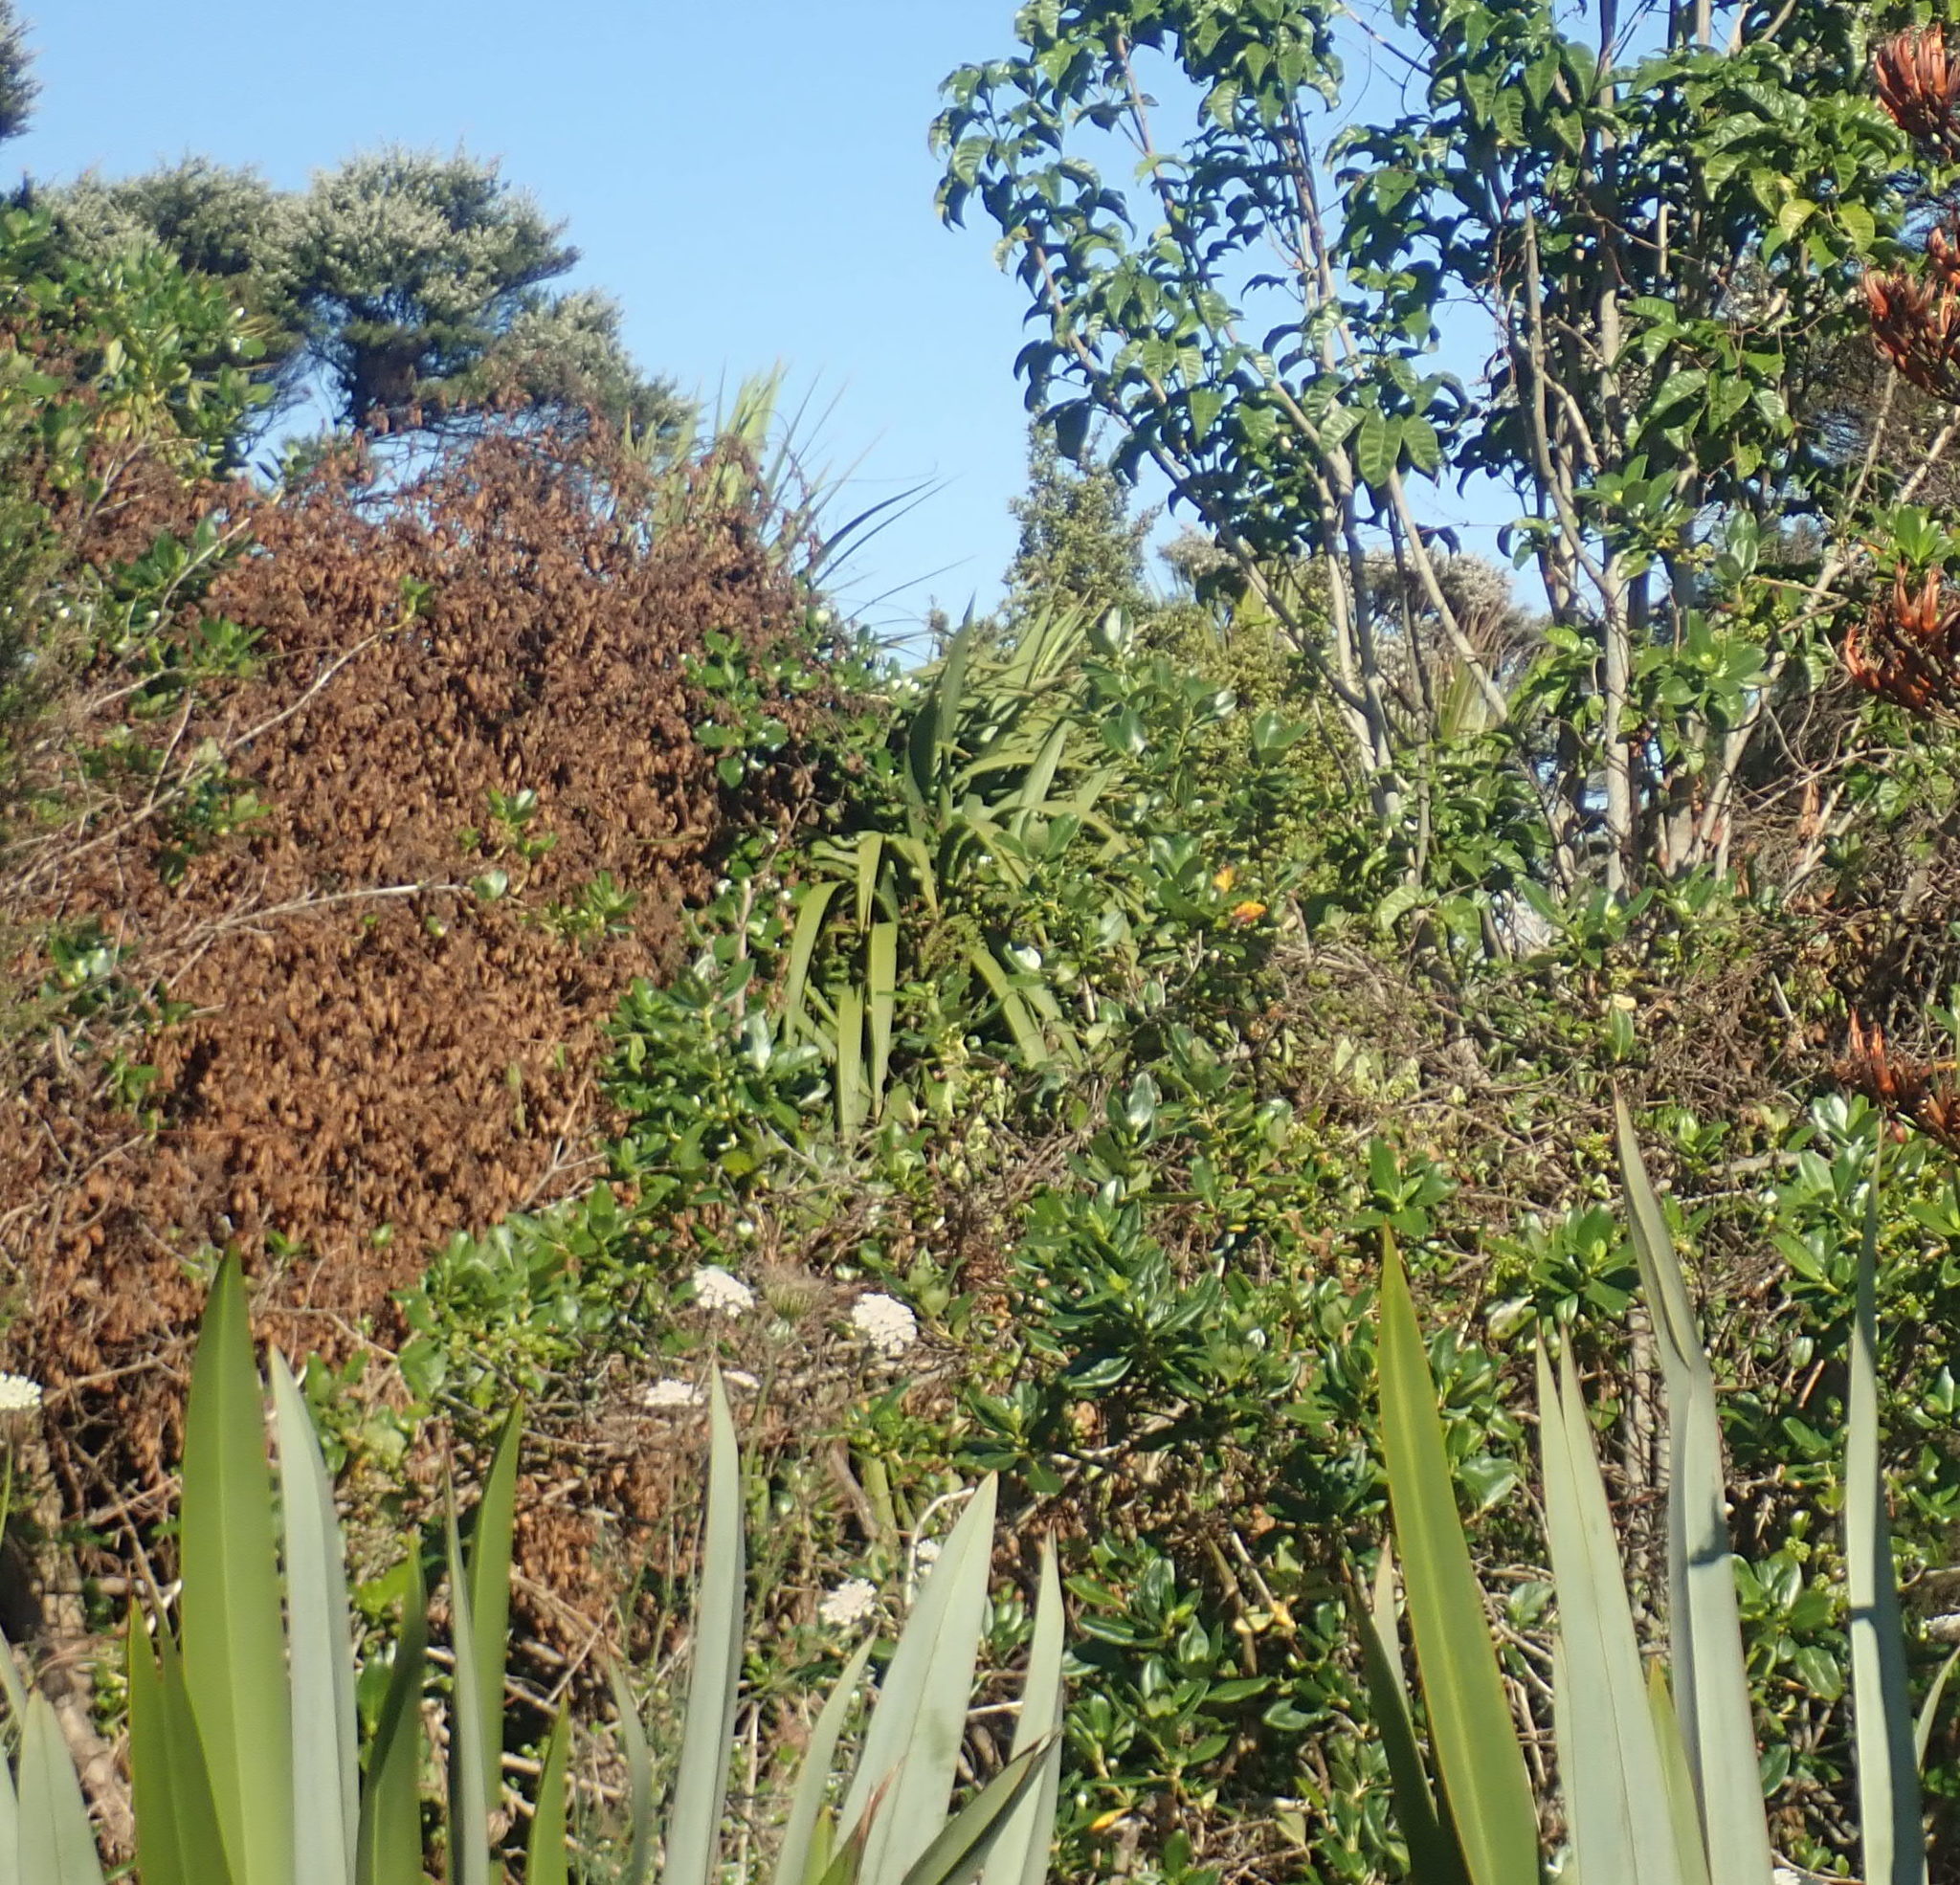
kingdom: Plantae
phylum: Tracheophyta
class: Liliopsida
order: Asparagales
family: Asparagaceae
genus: Cordyline
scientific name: Cordyline australis
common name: Cabbage-palm
